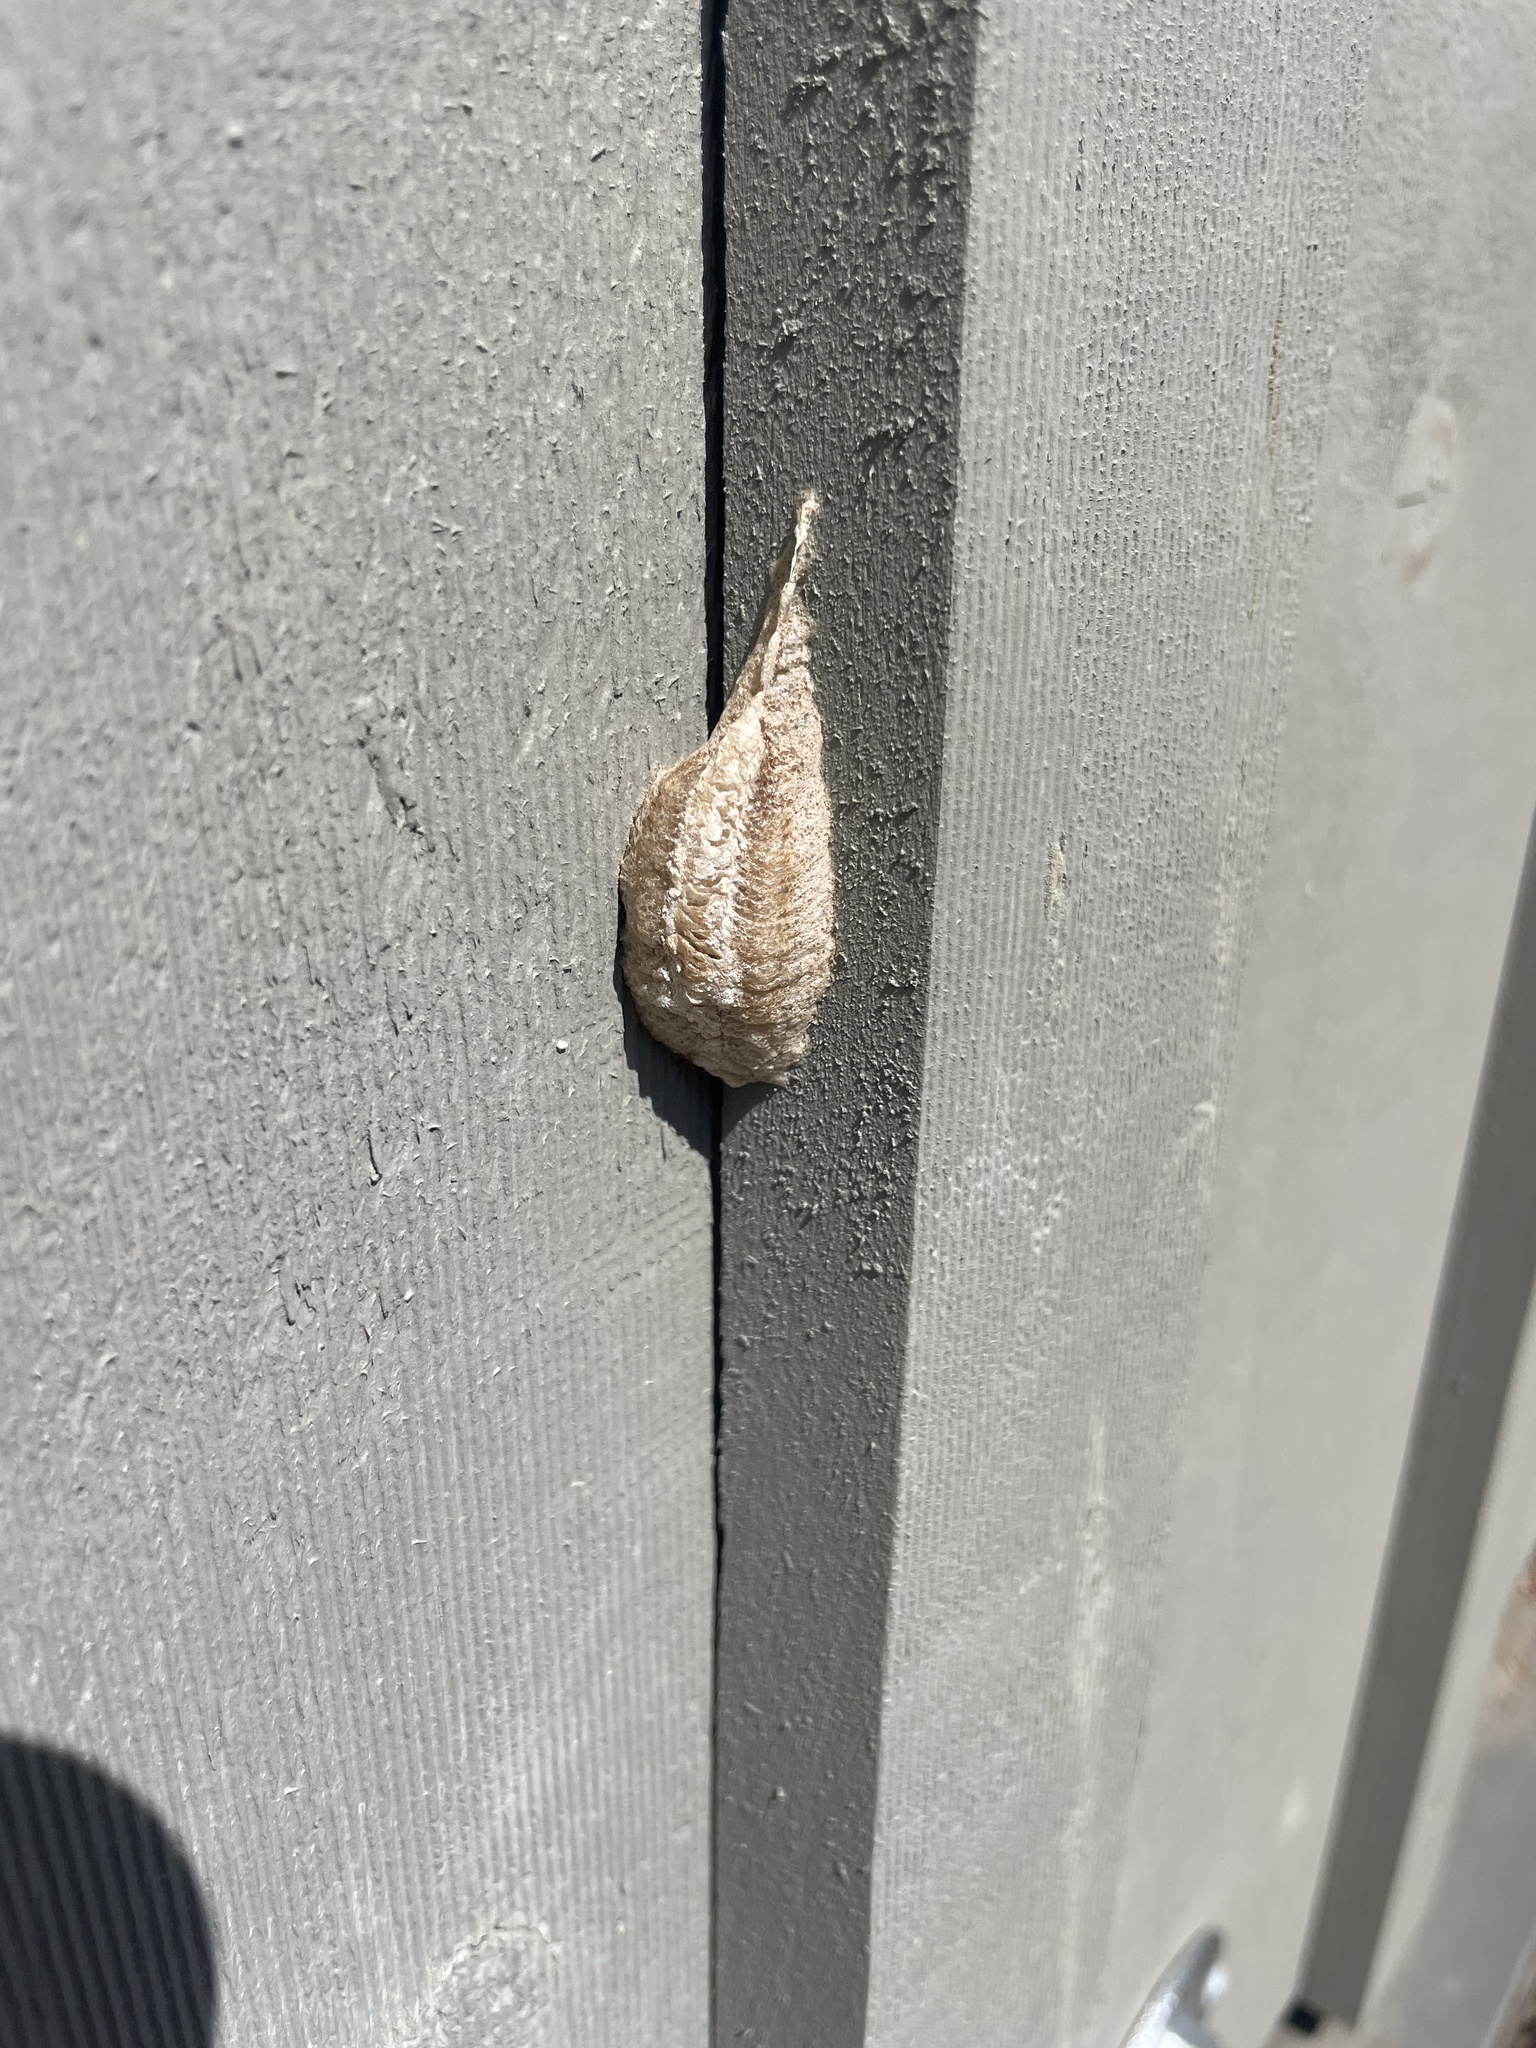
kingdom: Animalia
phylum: Arthropoda
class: Insecta
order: Mantodea
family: Mantidae
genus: Mantis
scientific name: Mantis religiosa
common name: Praying mantis
